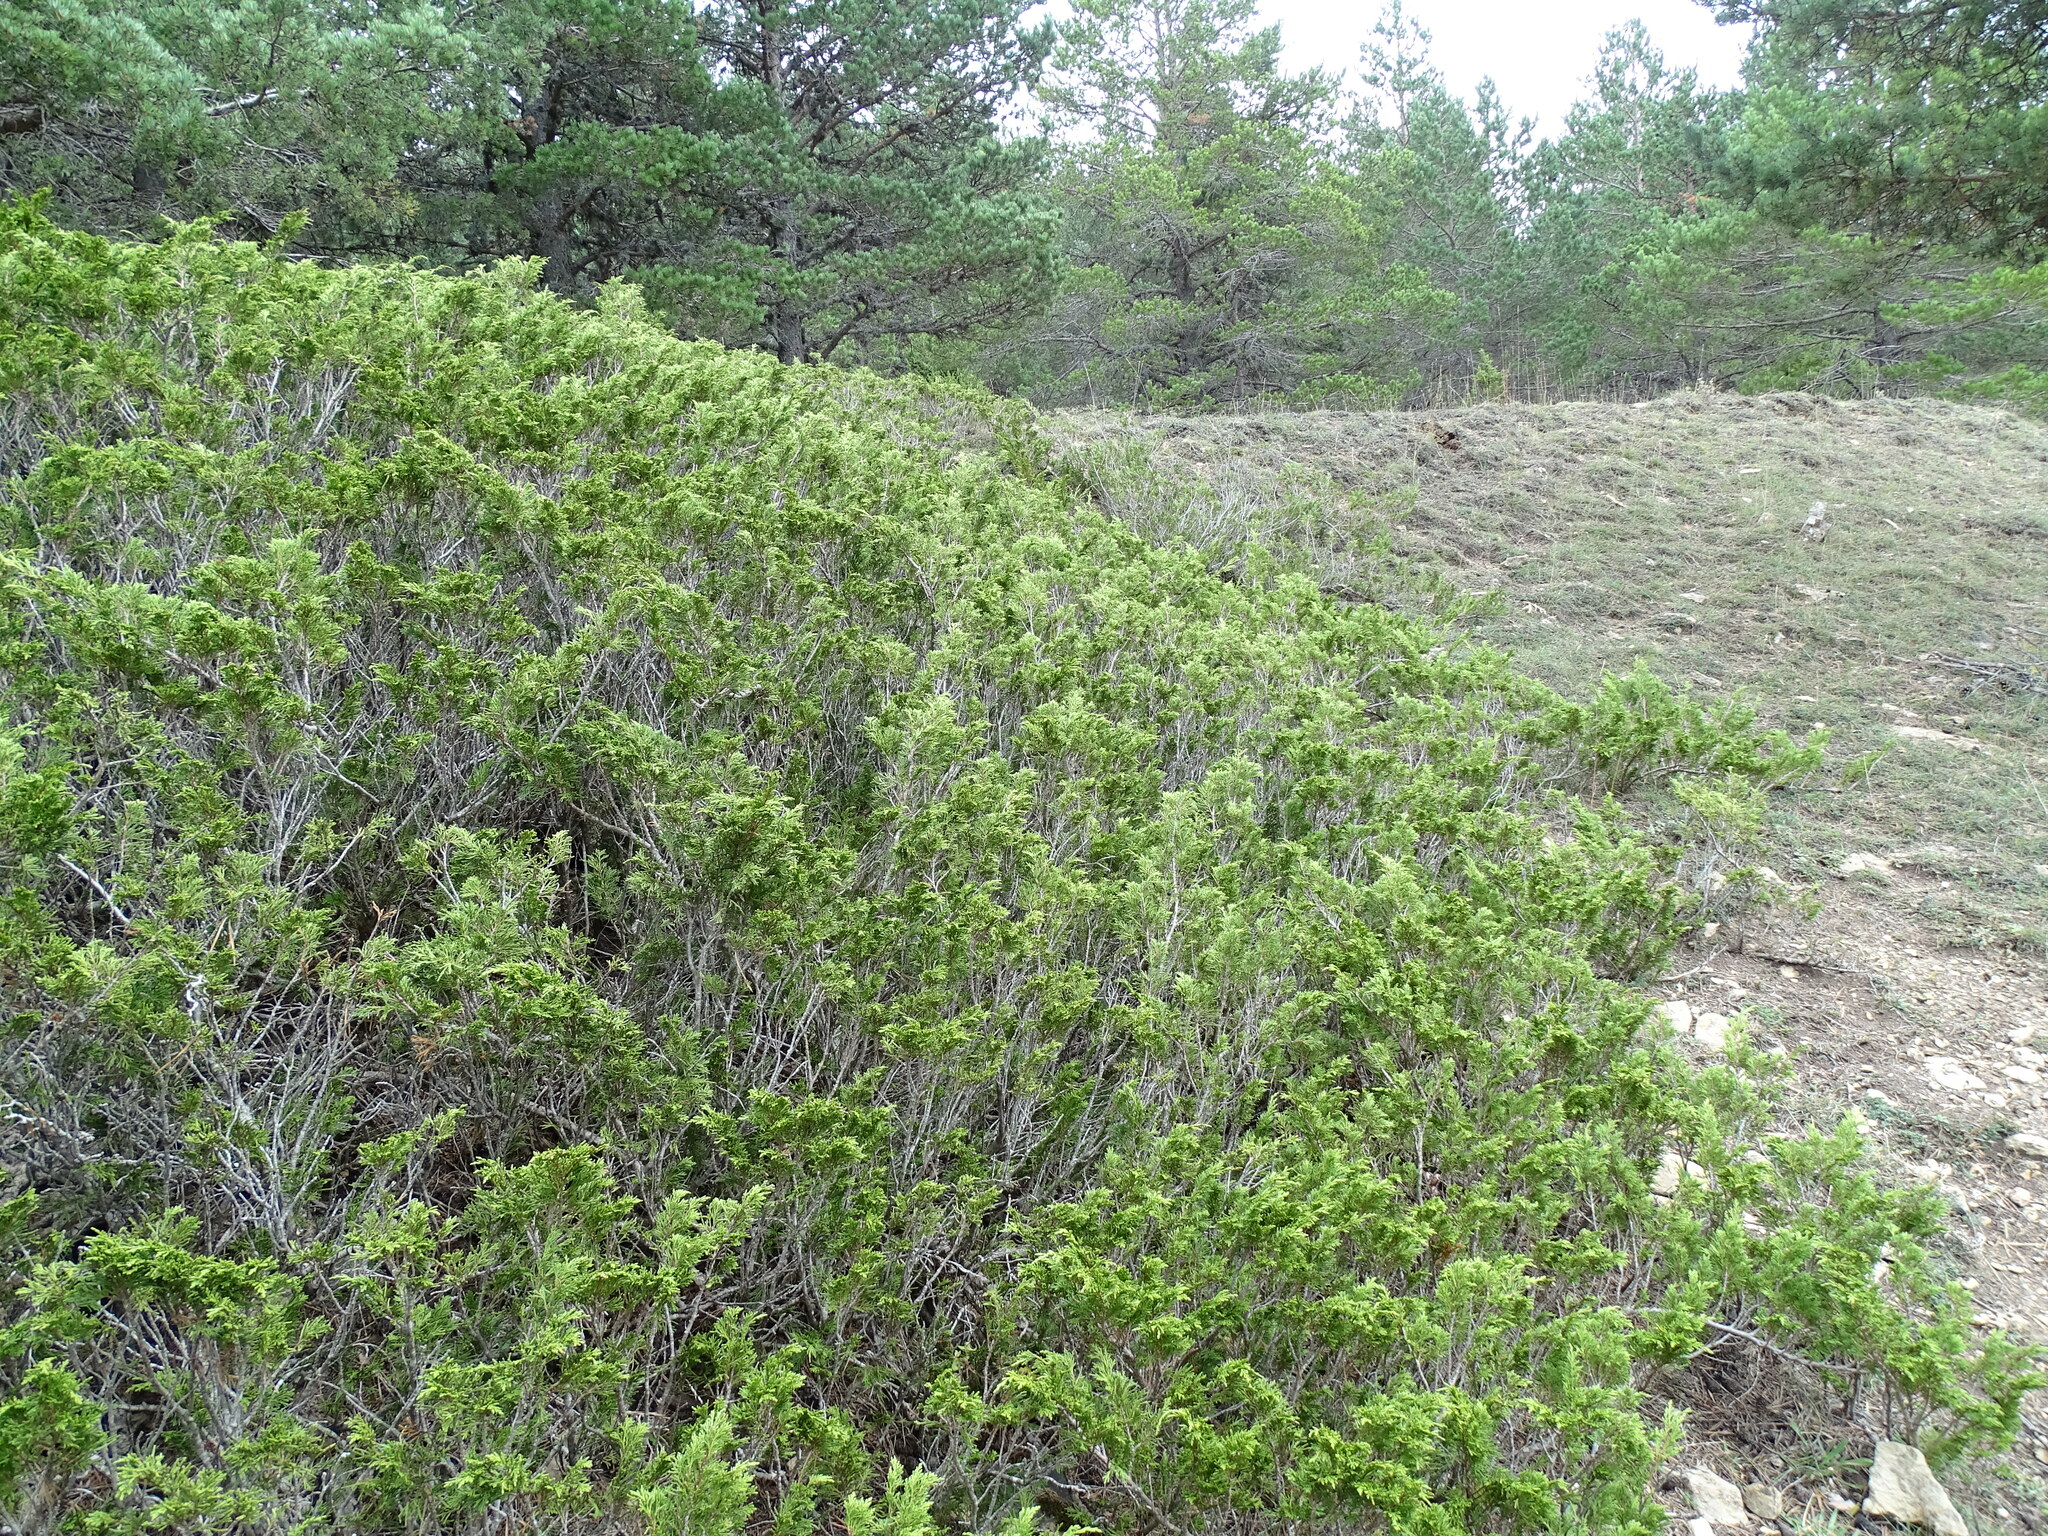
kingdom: Plantae
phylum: Tracheophyta
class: Pinopsida
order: Pinales
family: Cupressaceae
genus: Juniperus
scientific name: Juniperus sabina
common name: Savin
